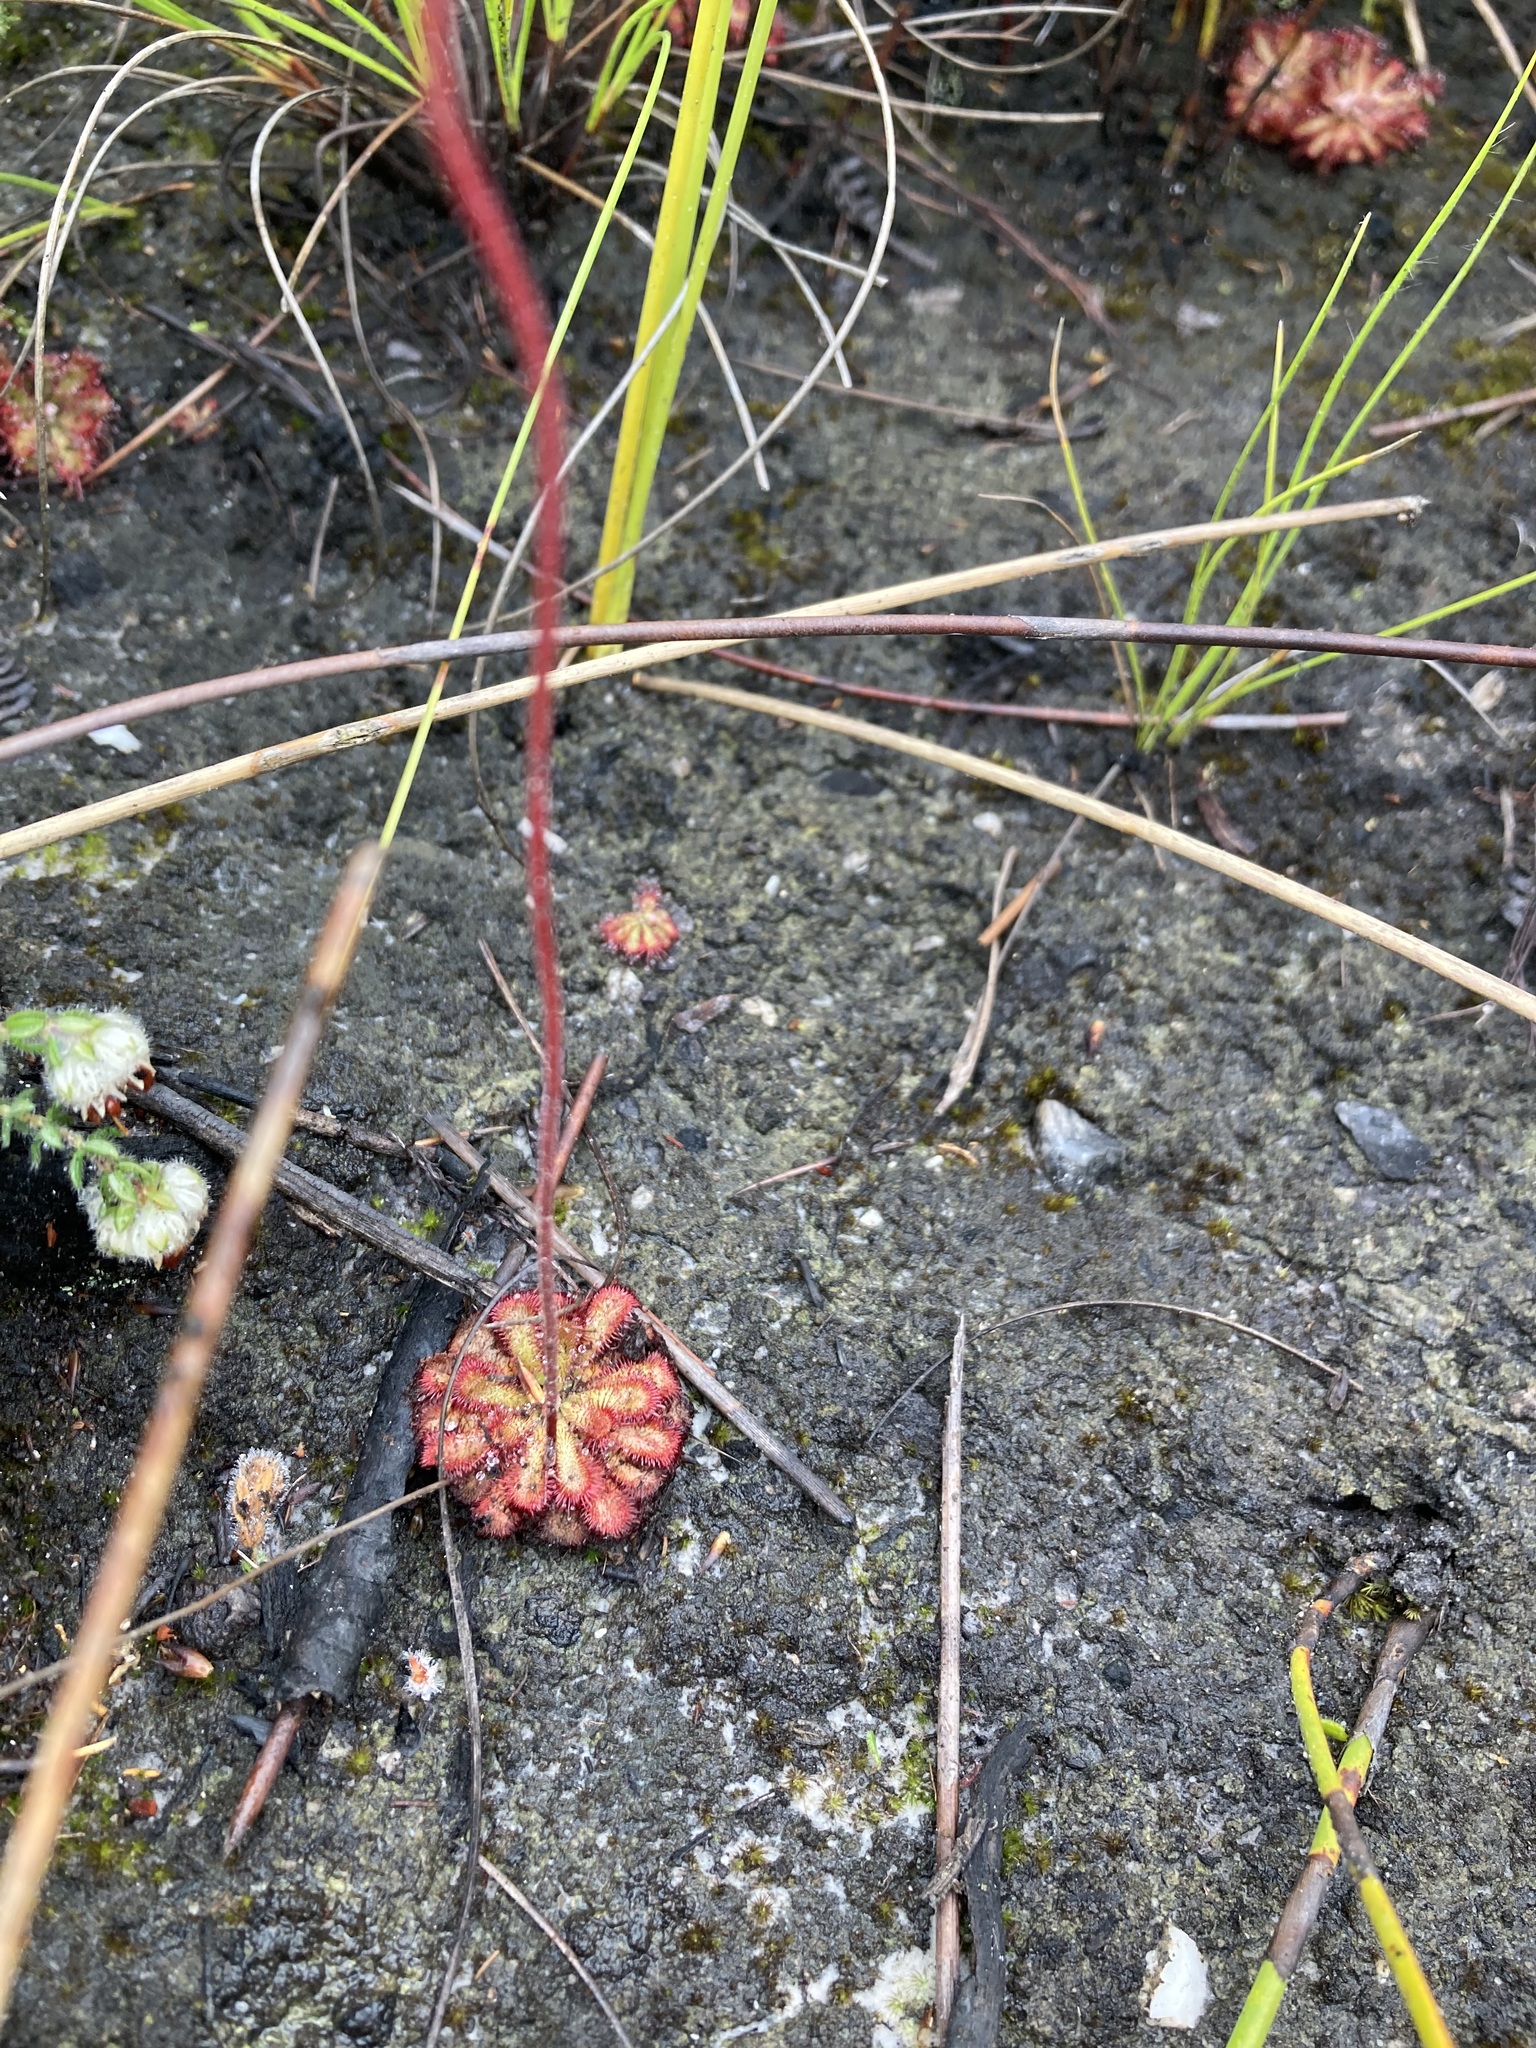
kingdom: Plantae
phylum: Tracheophyta
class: Magnoliopsida
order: Caryophyllales
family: Droseraceae
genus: Drosera
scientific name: Drosera aliciae
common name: Alice sundew
